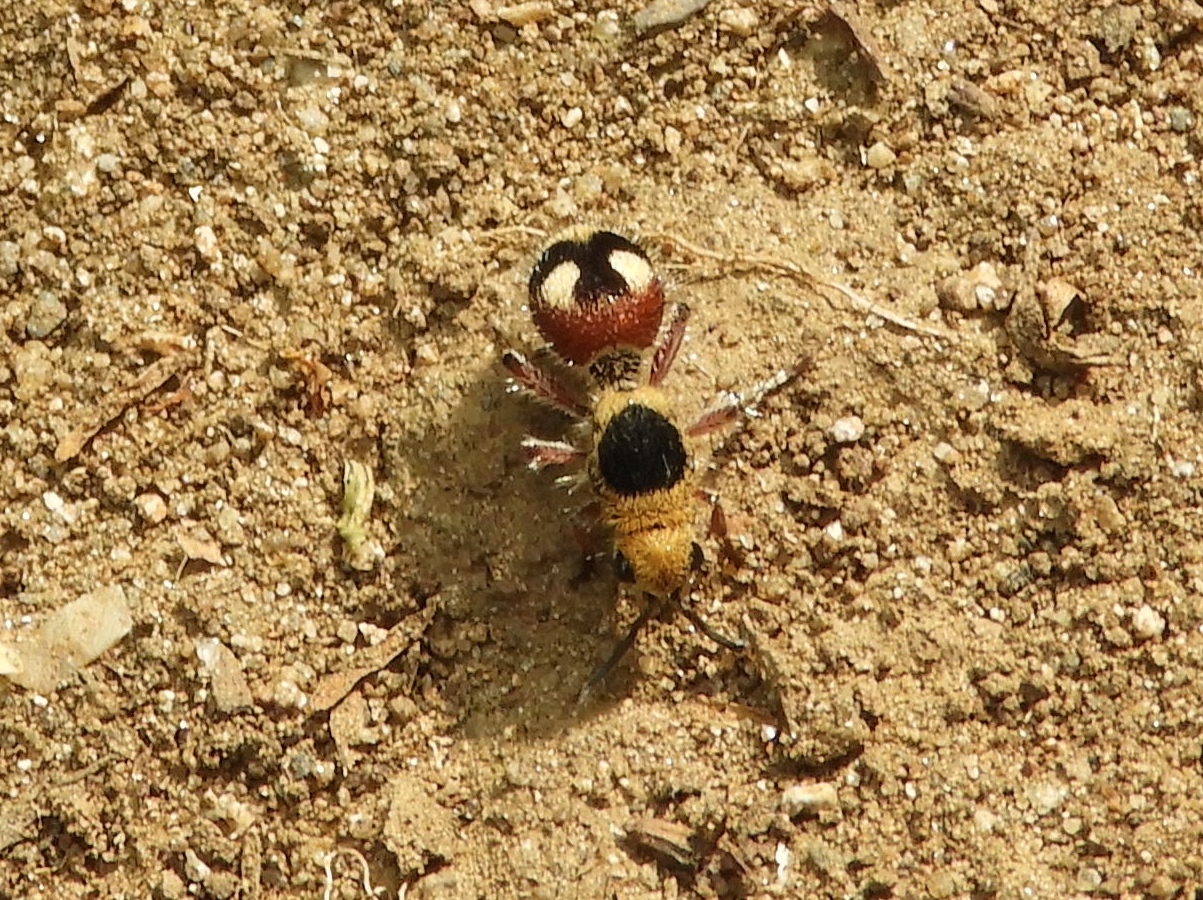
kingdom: Animalia
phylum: Arthropoda
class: Insecta
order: Hymenoptera
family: Mutillidae
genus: Dasymutilla
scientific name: Dasymutilla
